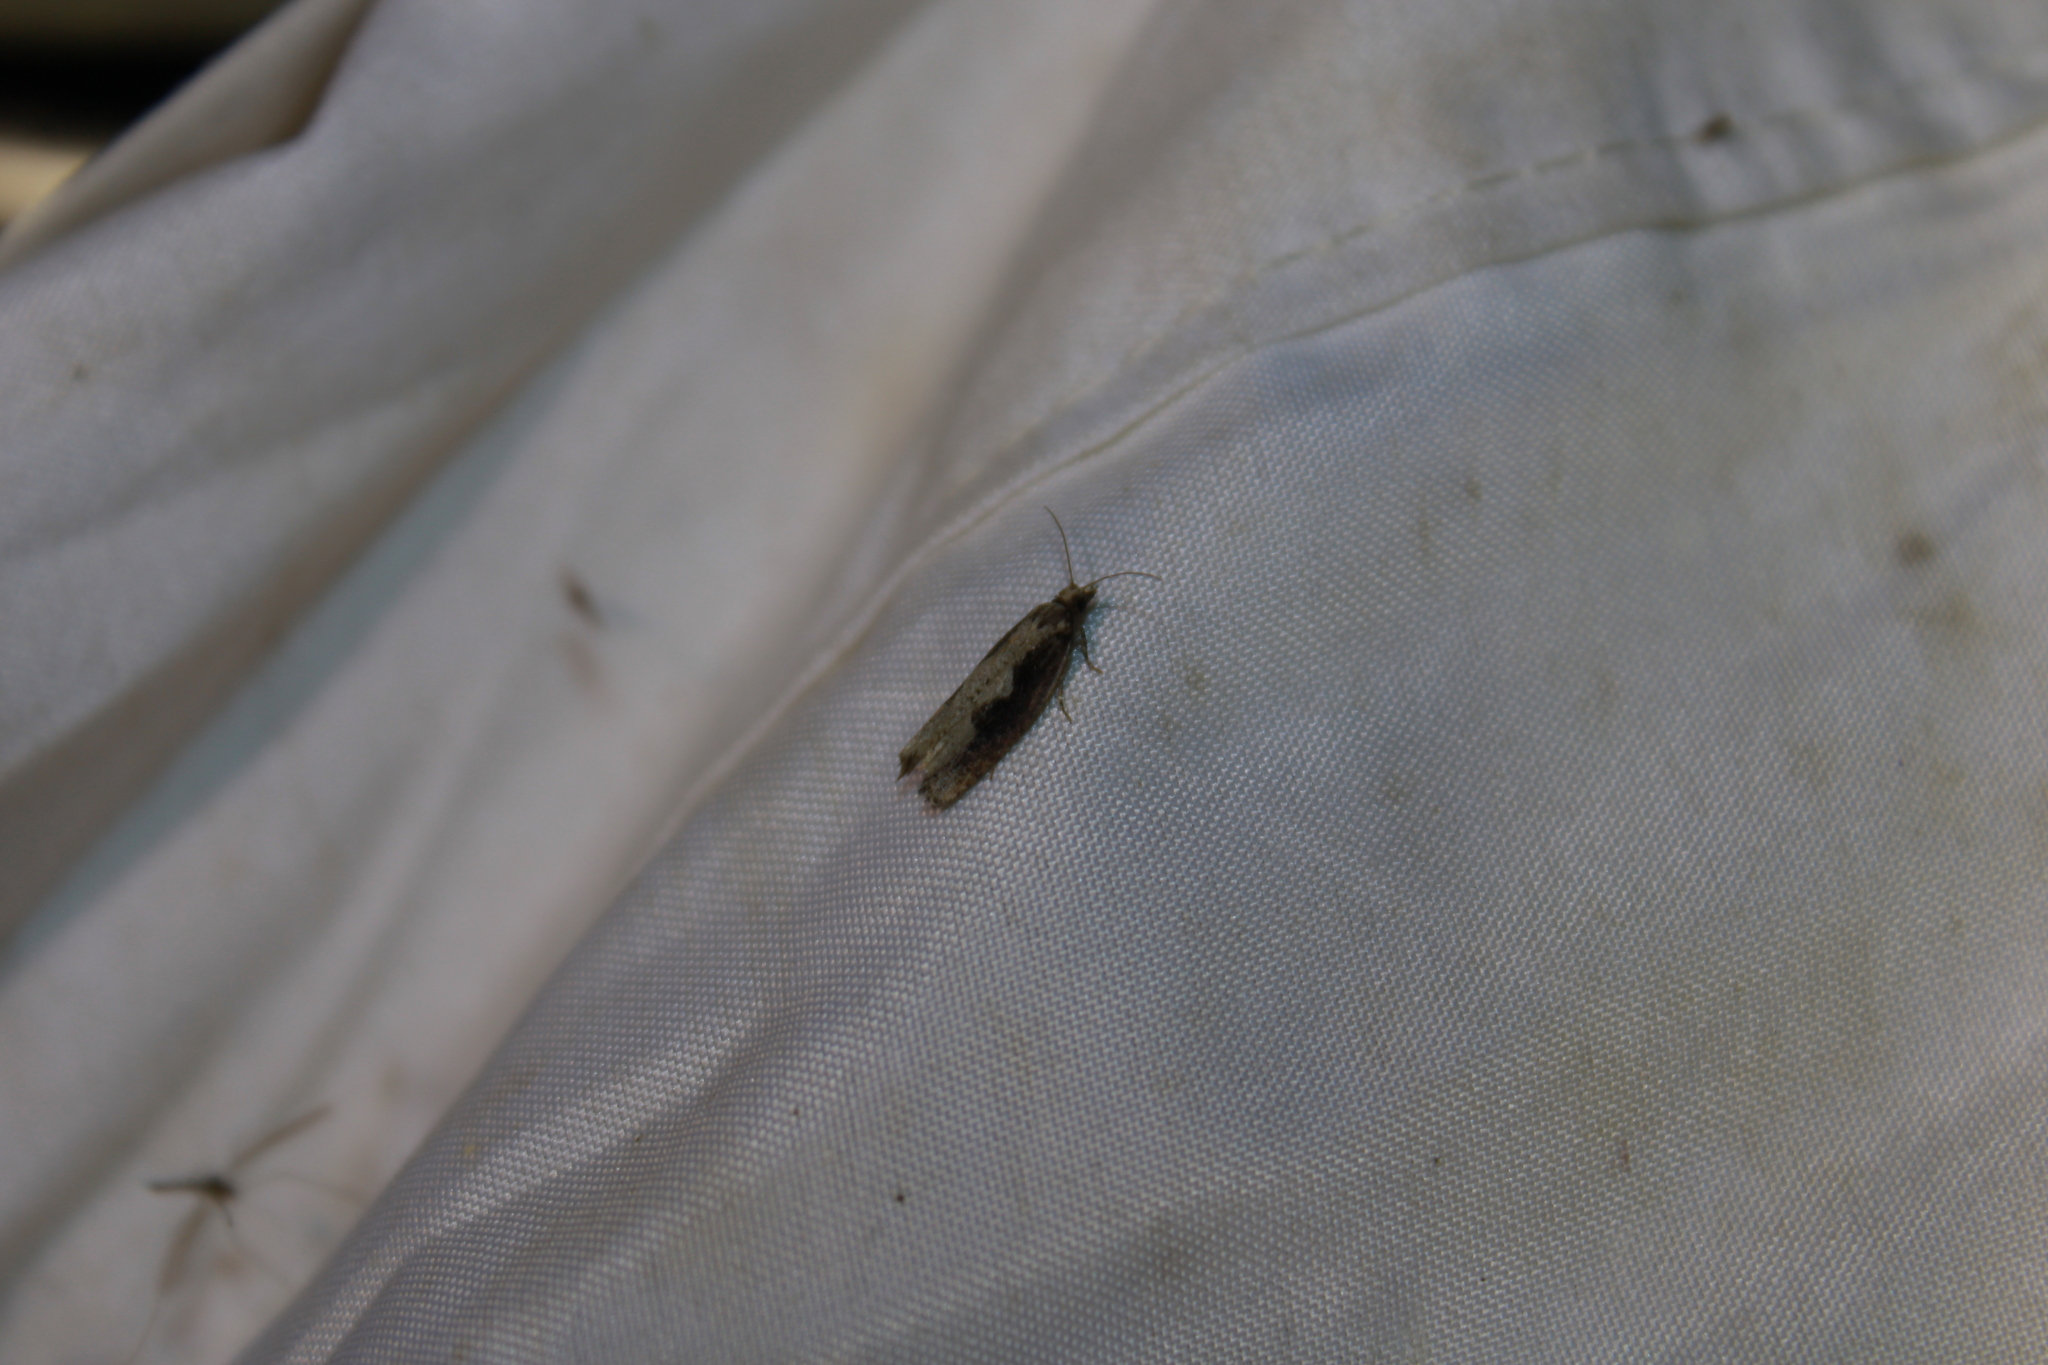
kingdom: Animalia
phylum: Arthropoda
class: Insecta
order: Lepidoptera
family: Tortricidae
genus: Epinotia
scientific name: Epinotia lindana
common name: Diamondback epinotia moth
